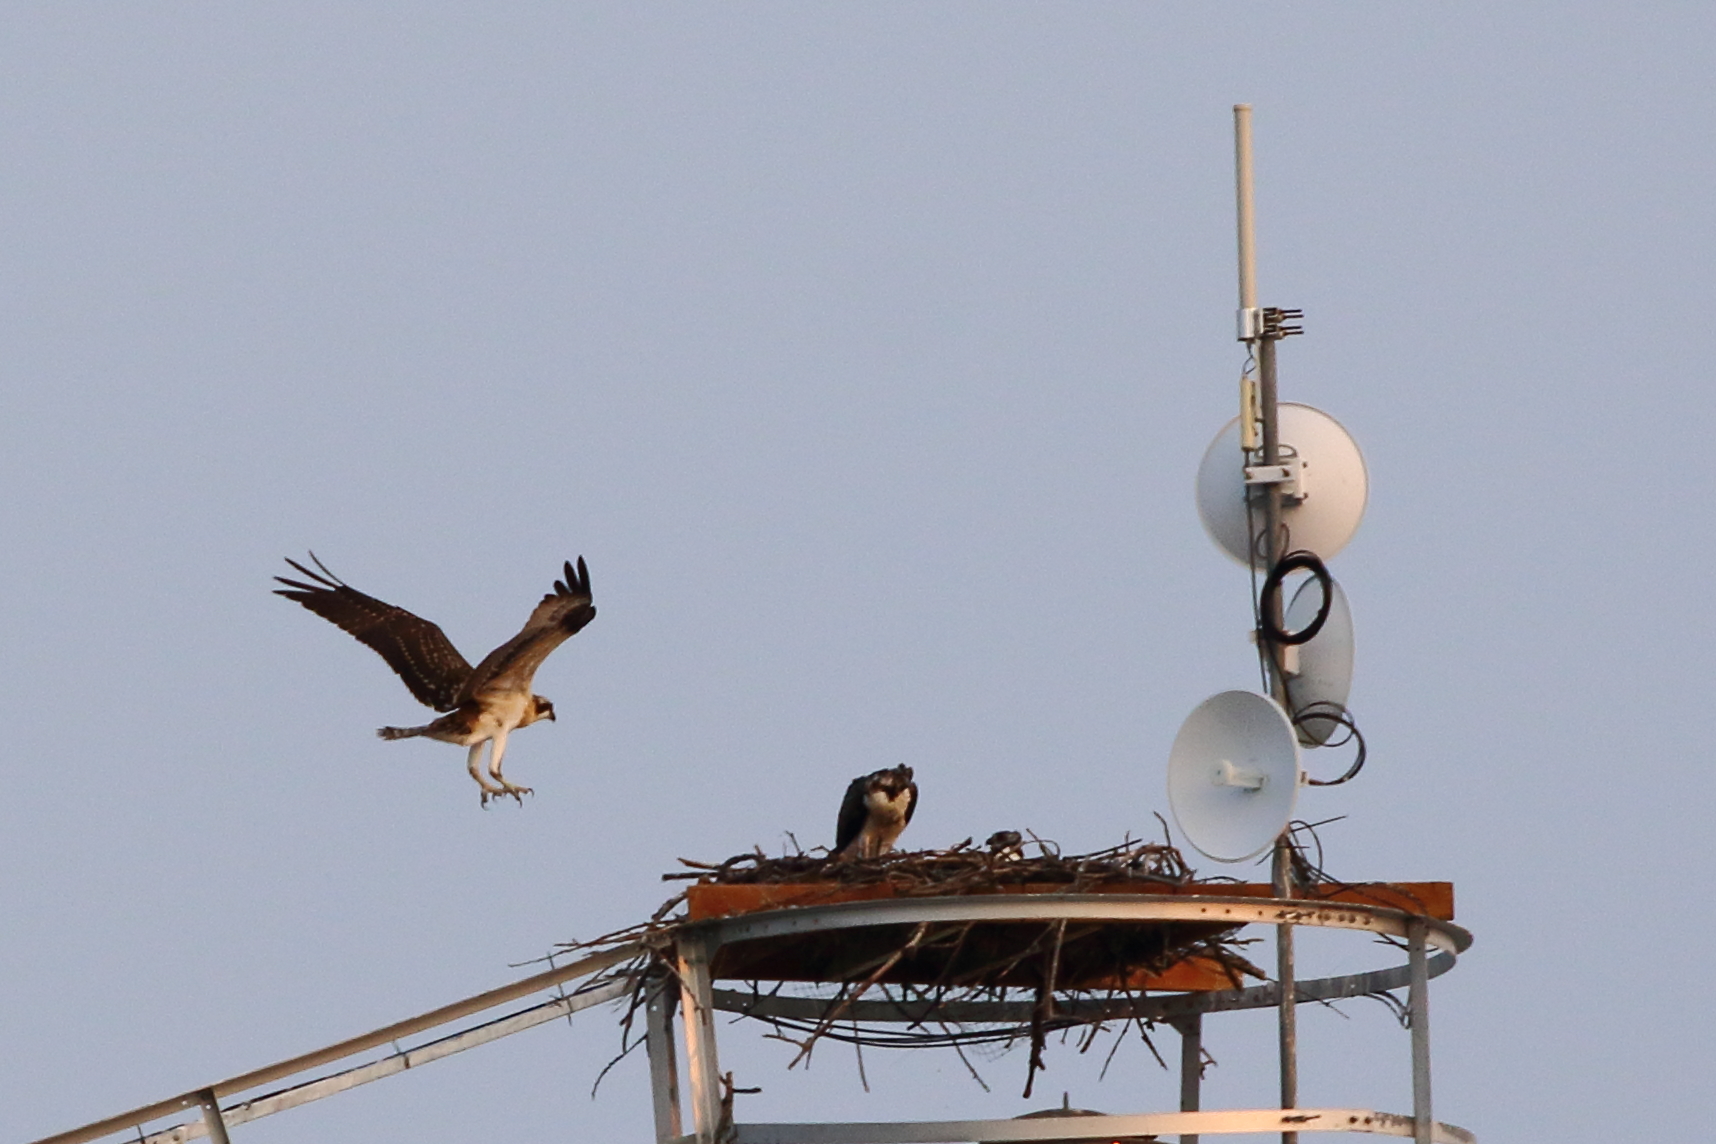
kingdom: Animalia
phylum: Chordata
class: Aves
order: Accipitriformes
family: Pandionidae
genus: Pandion
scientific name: Pandion haliaetus
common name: Osprey
